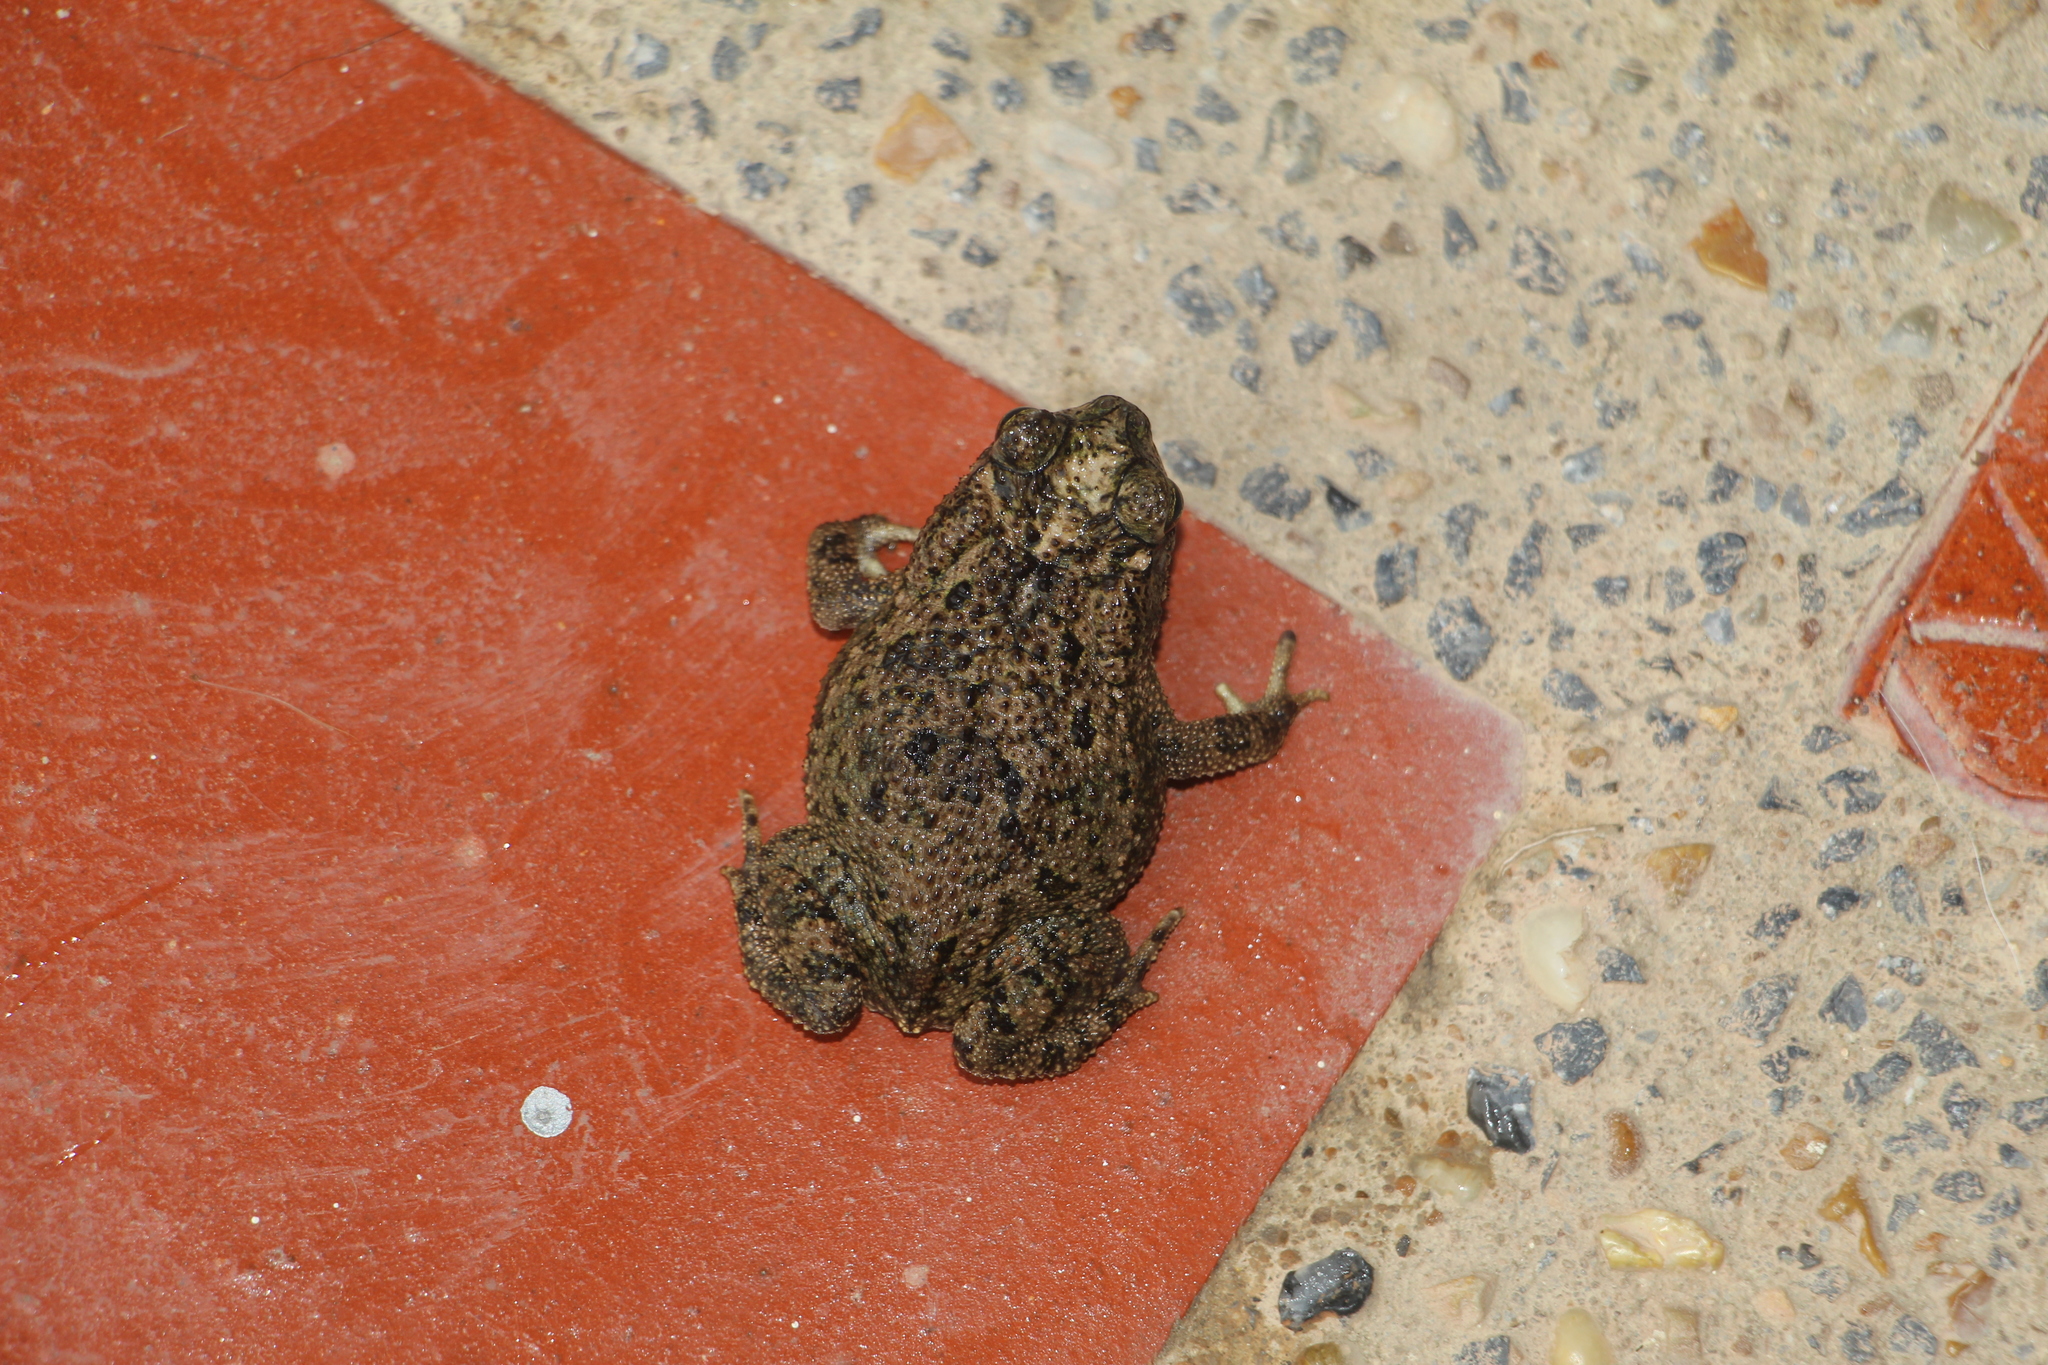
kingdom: Animalia
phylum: Chordata
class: Amphibia
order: Anura
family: Bufonidae
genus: Rhinella
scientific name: Rhinella beebei
